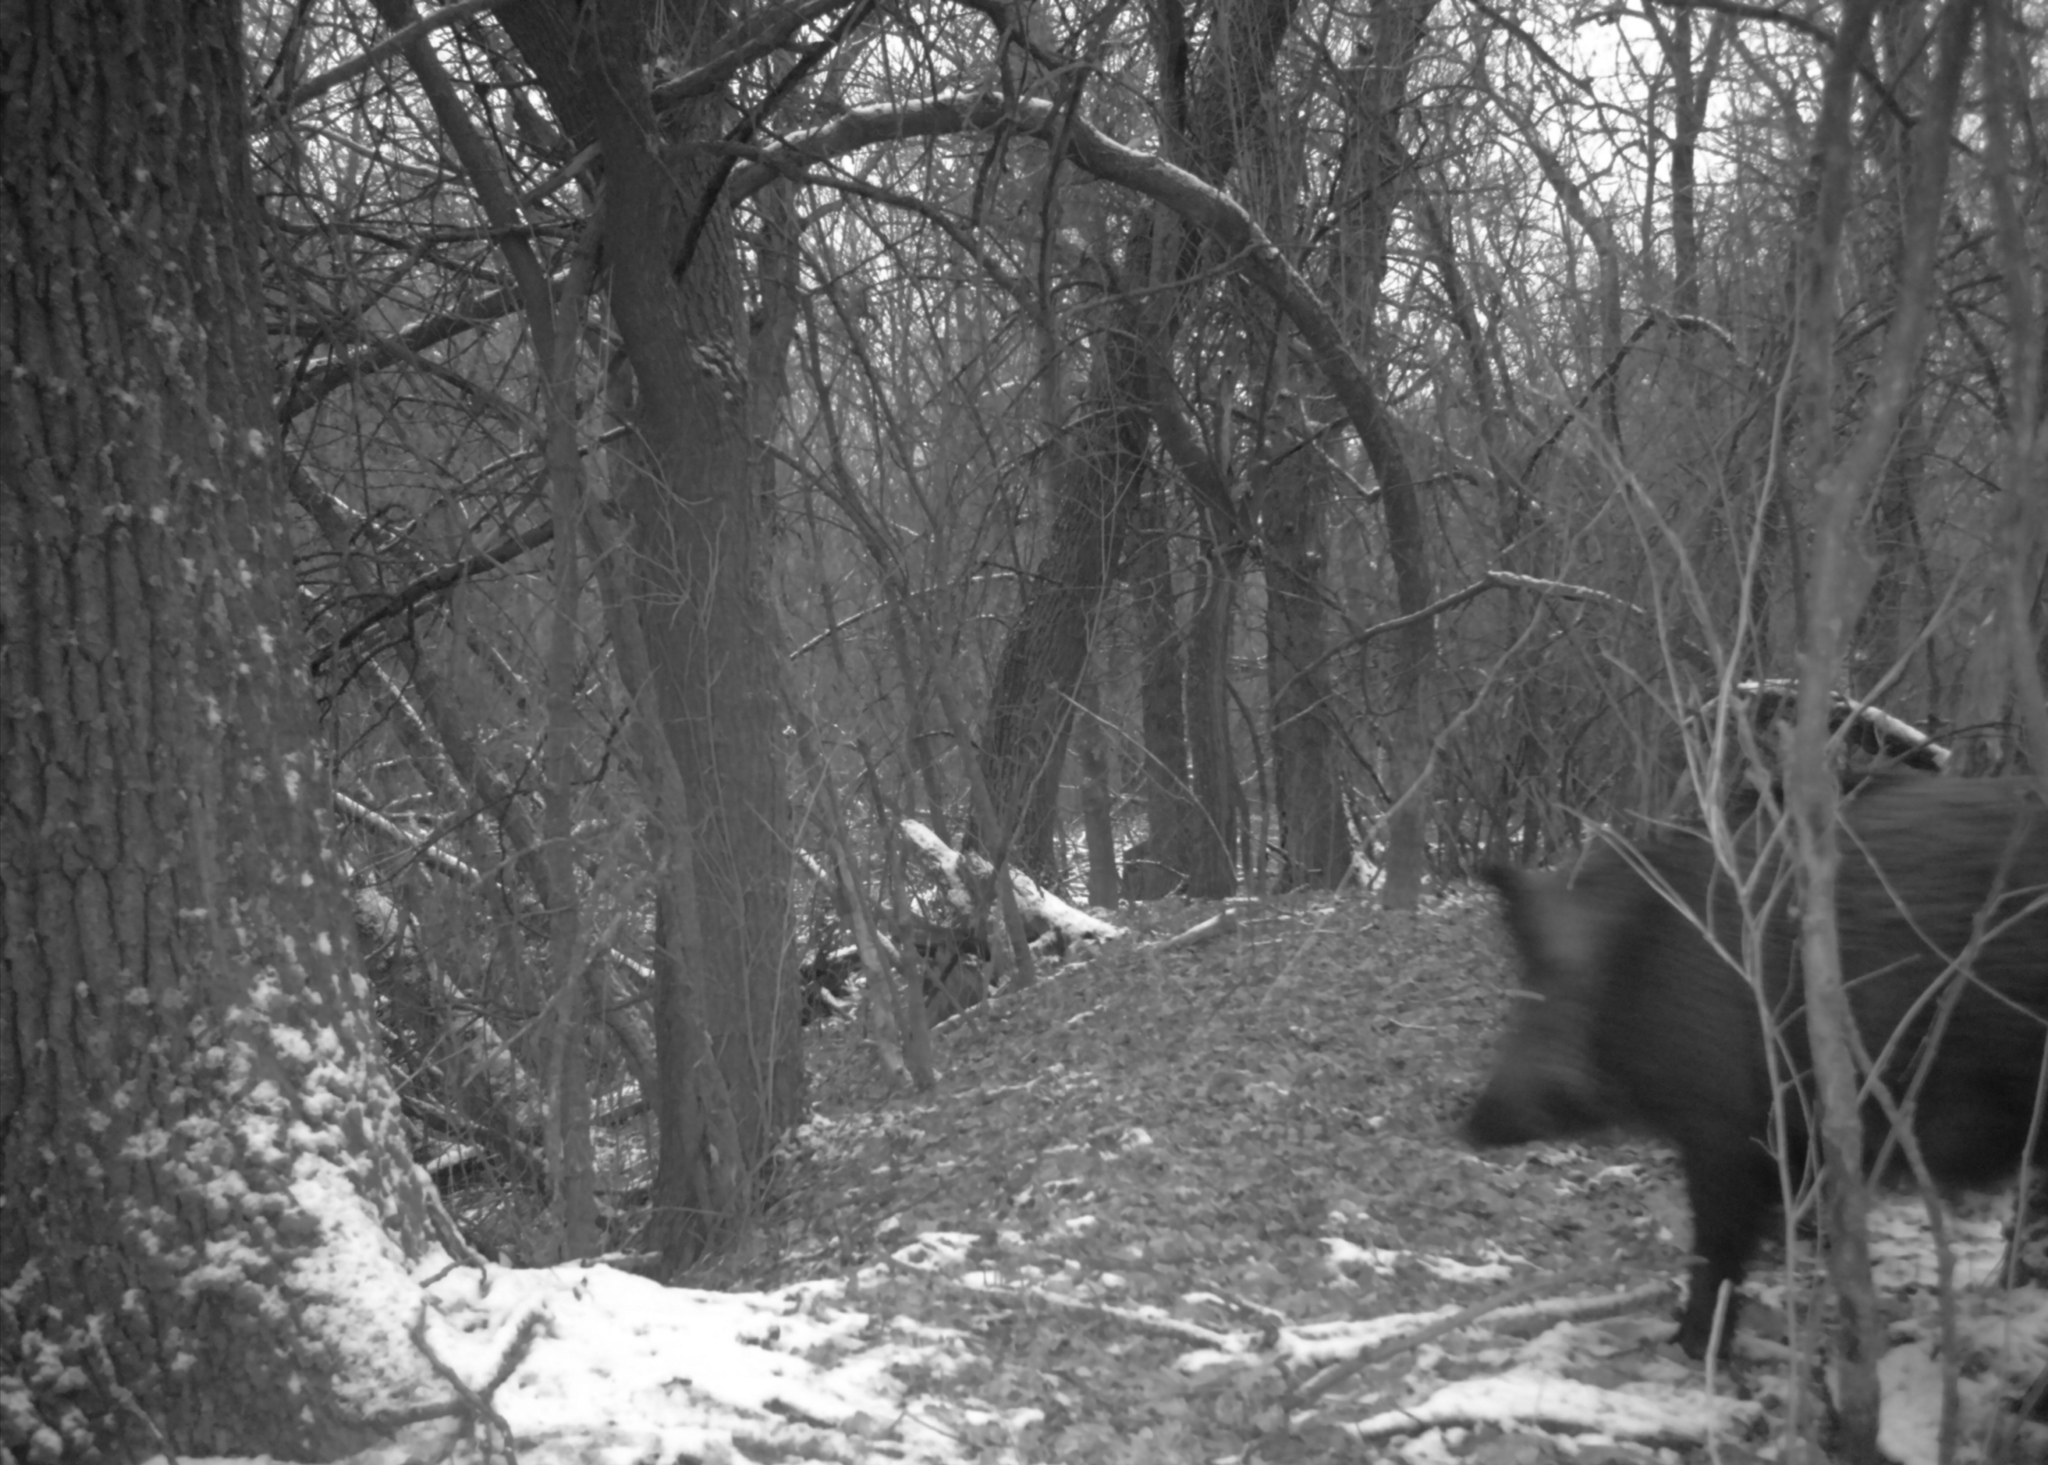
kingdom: Animalia
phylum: Chordata
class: Mammalia
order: Artiodactyla
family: Suidae
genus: Sus
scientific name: Sus scrofa
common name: Wild boar
